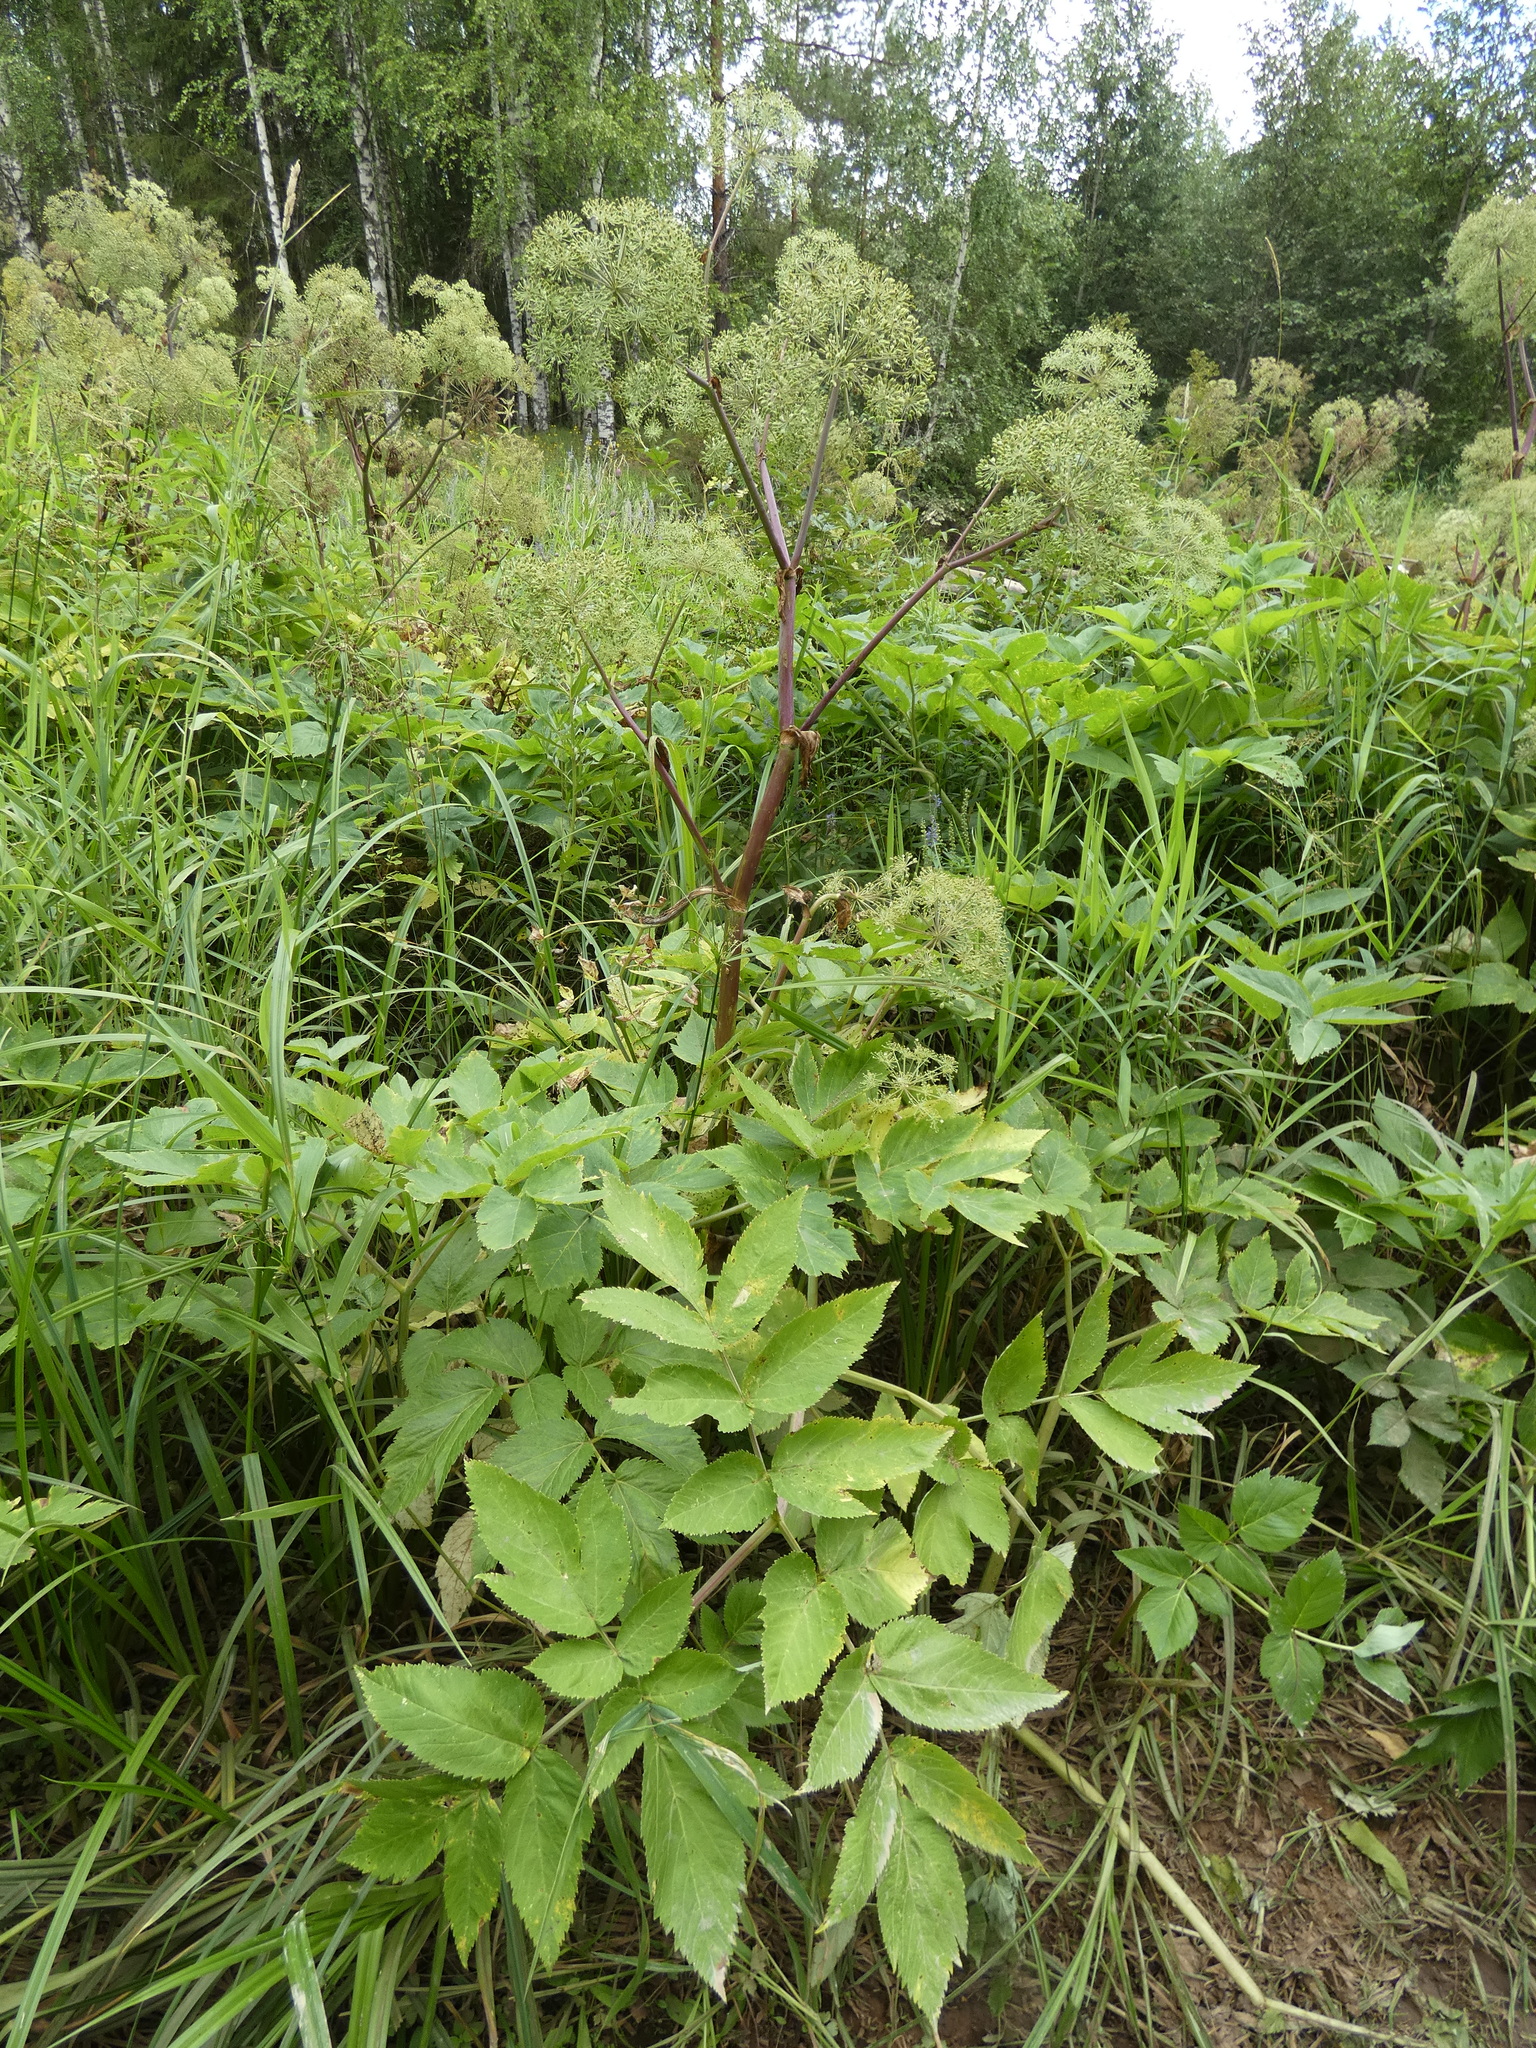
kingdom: Plantae
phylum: Tracheophyta
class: Magnoliopsida
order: Apiales
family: Apiaceae
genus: Angelica
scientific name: Angelica archangelica
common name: Garden angelica
